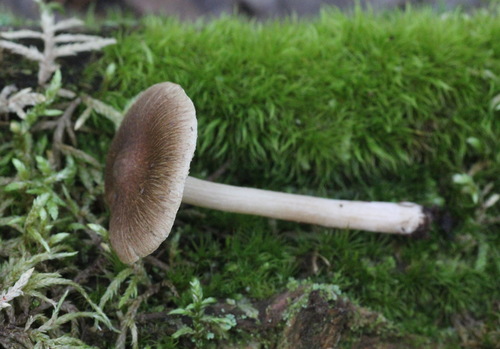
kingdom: Fungi
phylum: Basidiomycota
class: Agaricomycetes
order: Agaricales
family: Inocybaceae
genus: Inocybe
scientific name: Inocybe splendens
